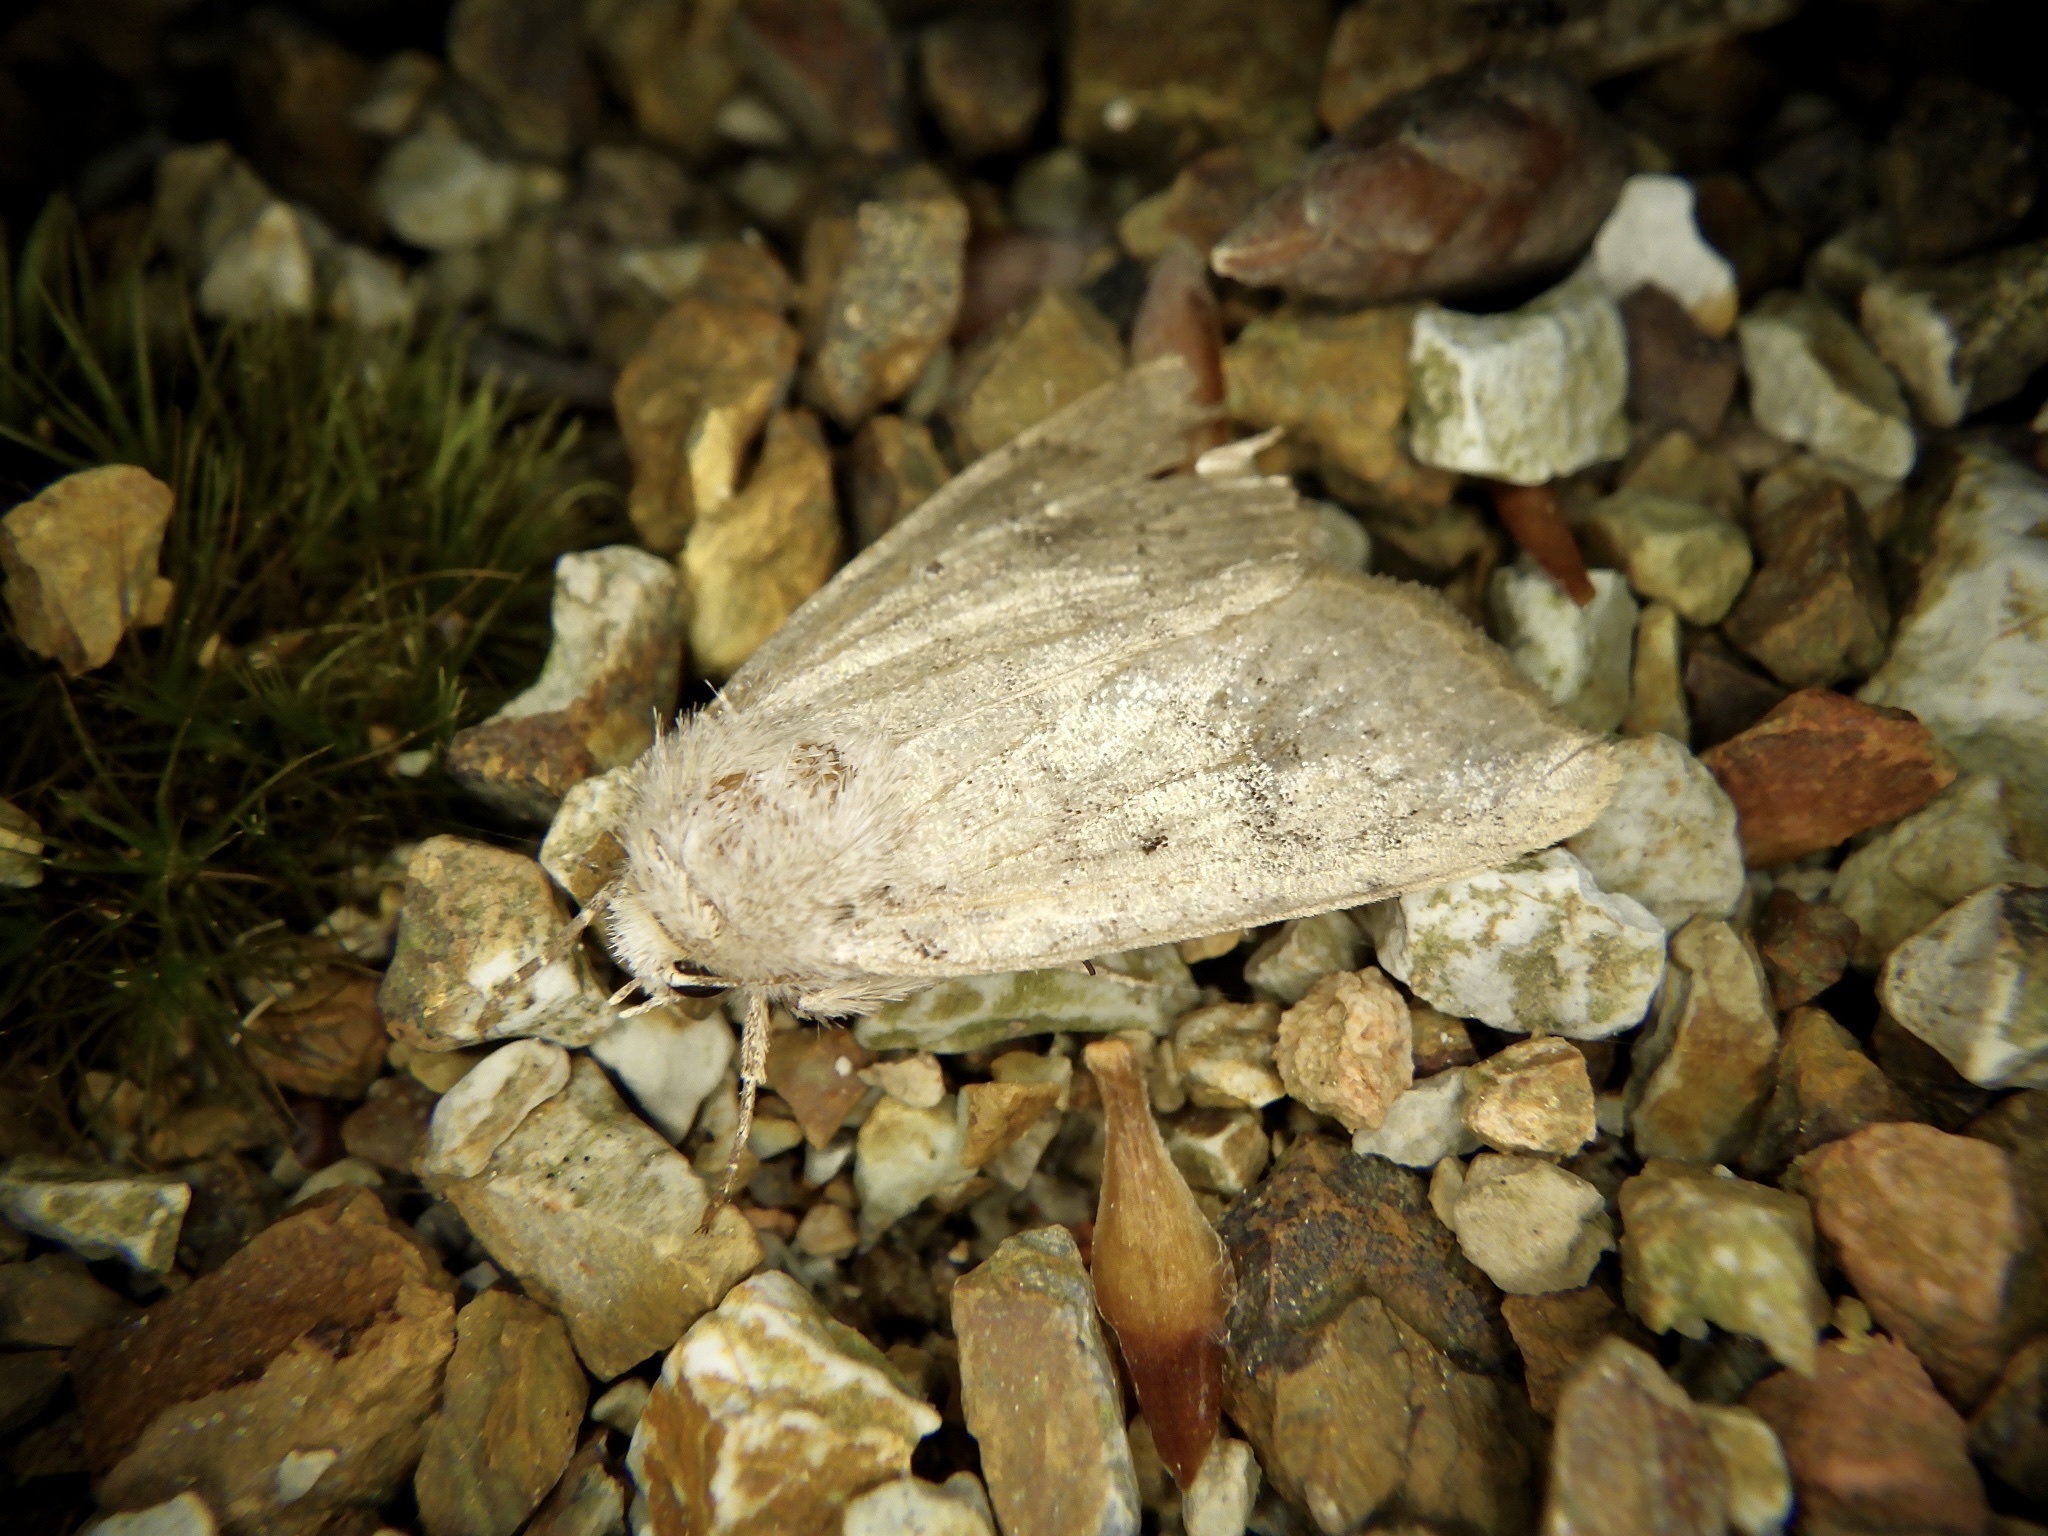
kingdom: Animalia
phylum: Arthropoda
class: Insecta
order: Lepidoptera
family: Noctuidae
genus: Athetis
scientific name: Athetis cinerascens
